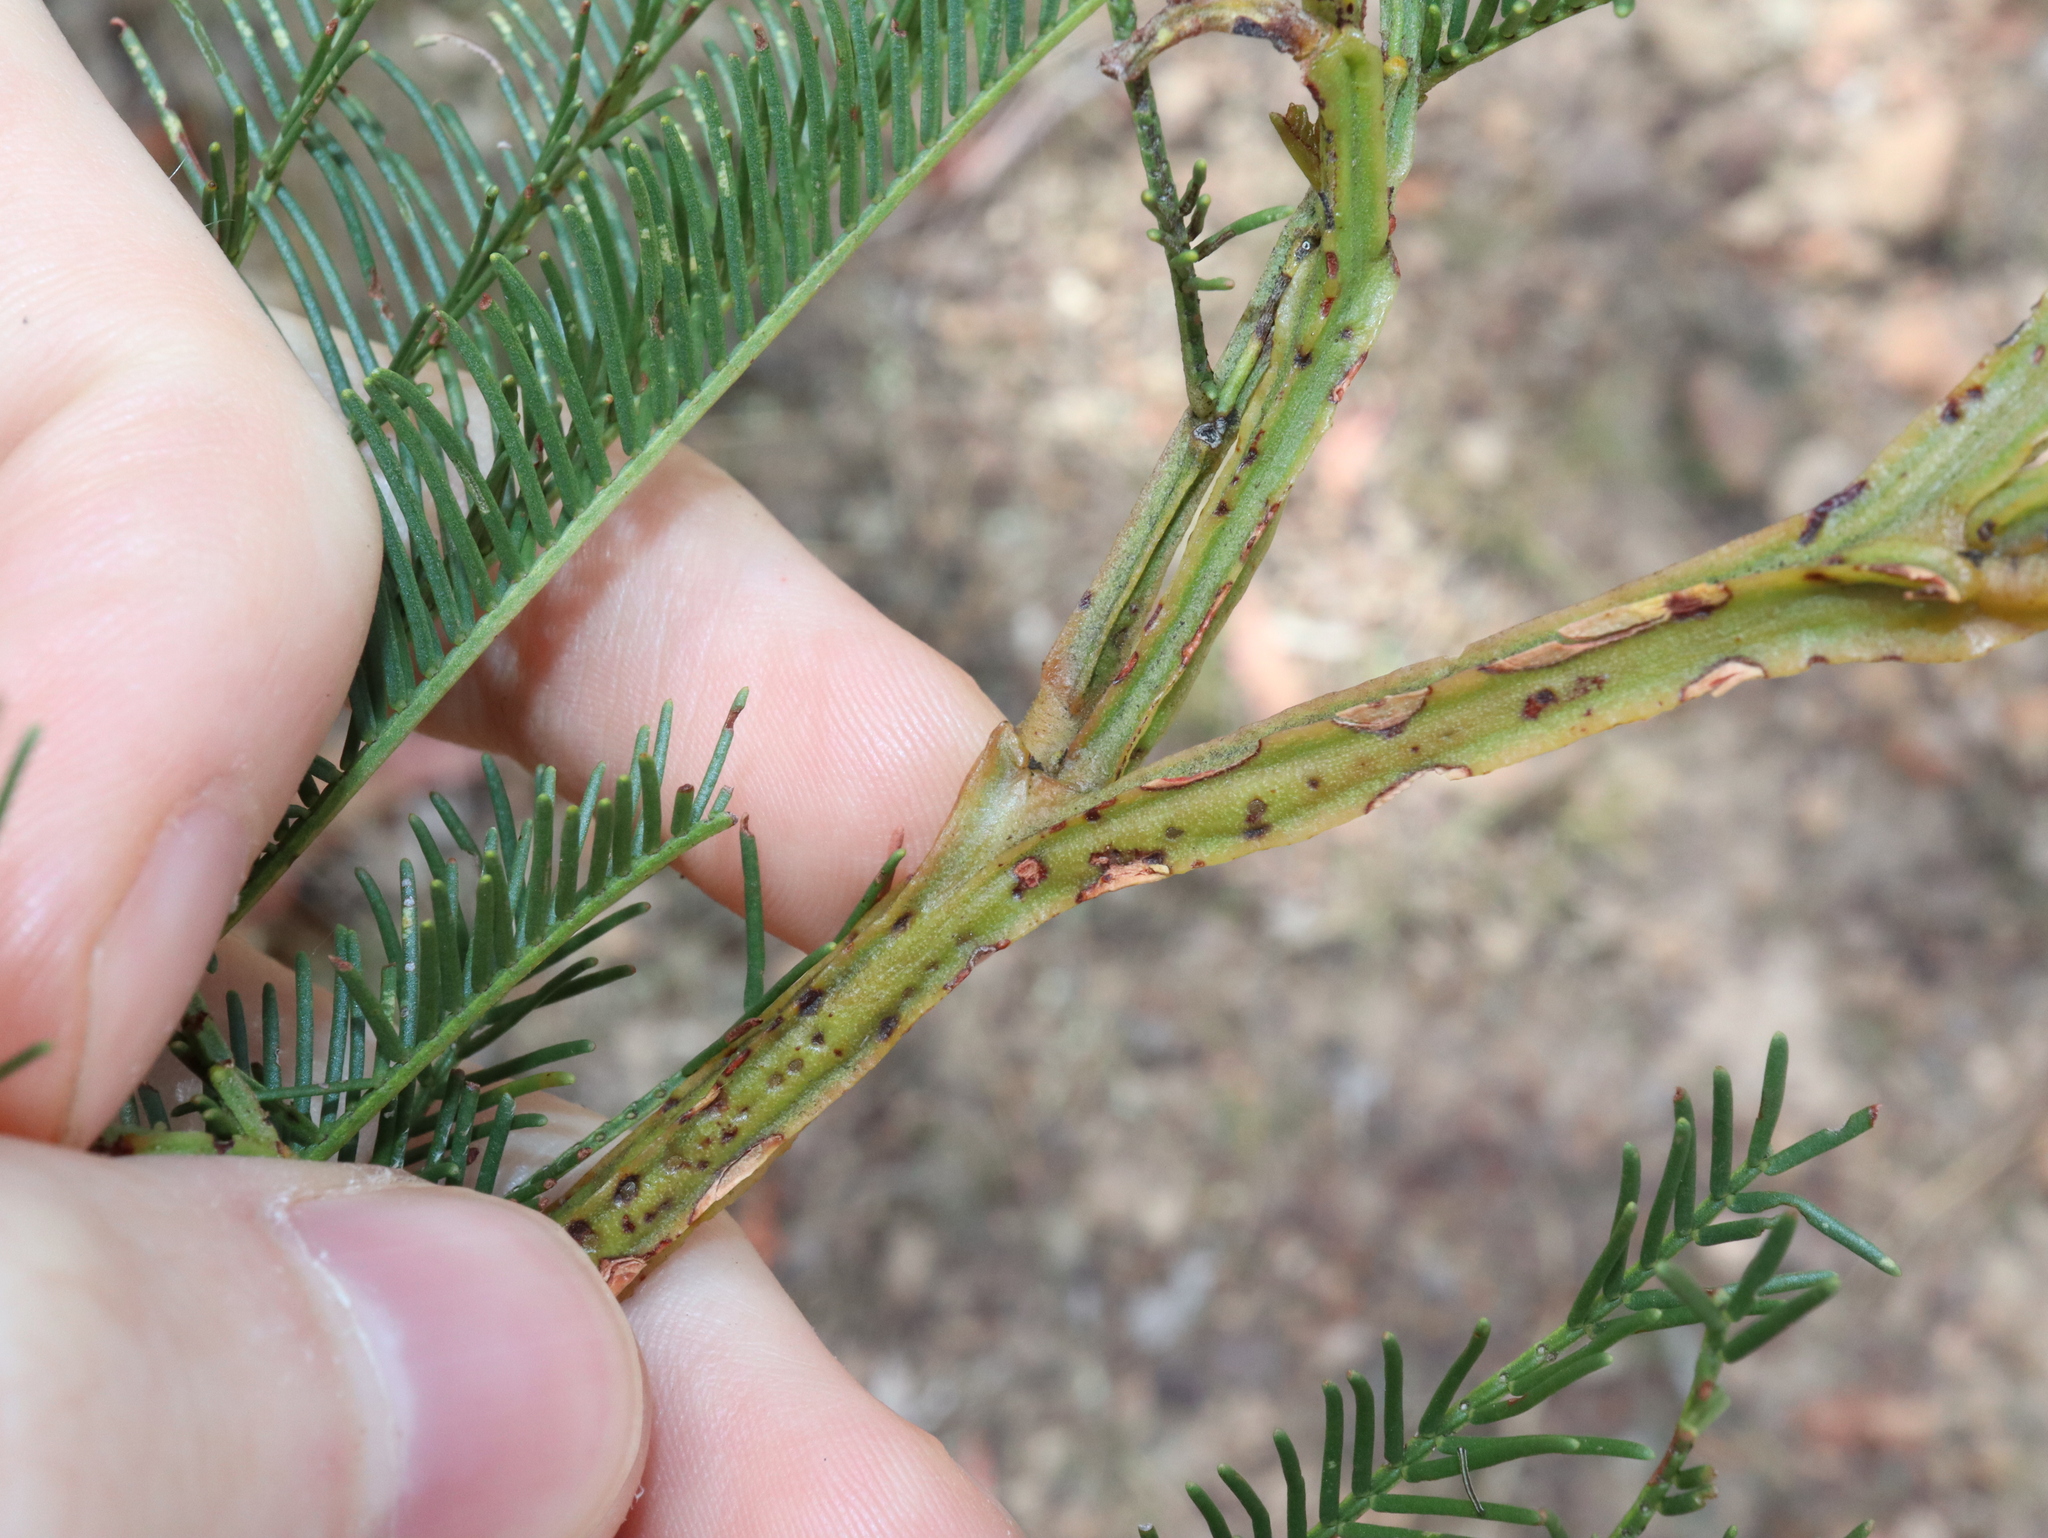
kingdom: Plantae
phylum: Tracheophyta
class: Magnoliopsida
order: Fabales
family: Fabaceae
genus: Acacia
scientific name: Acacia decurrens
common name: Green wattle
